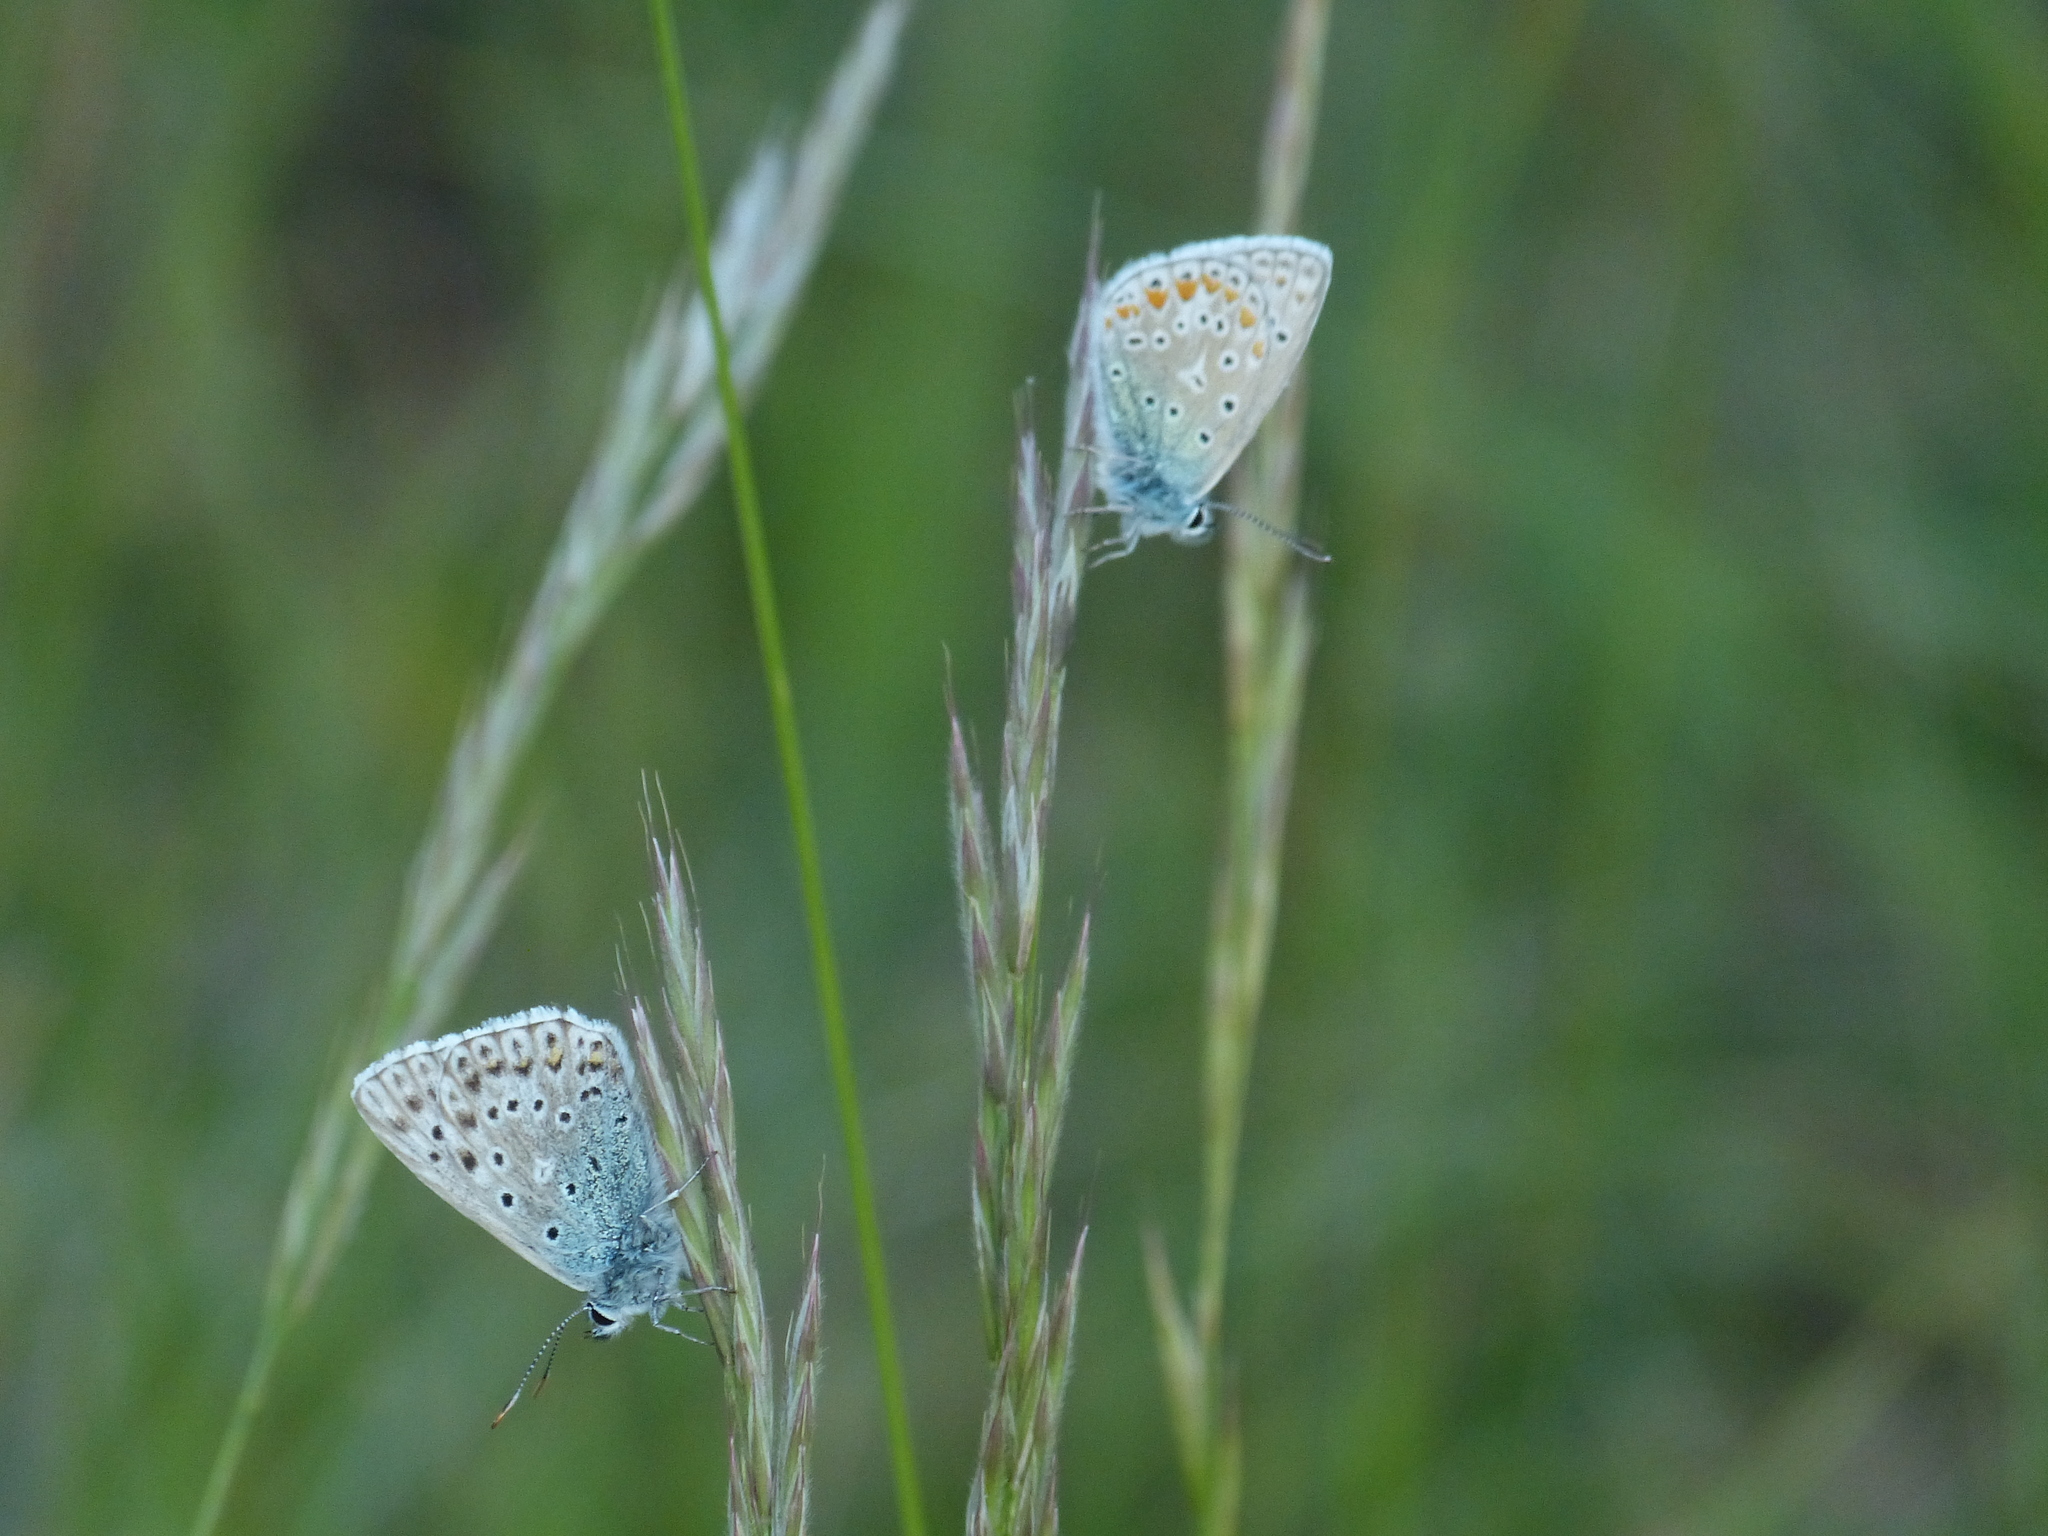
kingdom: Animalia
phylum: Arthropoda
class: Insecta
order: Lepidoptera
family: Lycaenidae
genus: Polyommatus
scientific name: Polyommatus icarus
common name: Common blue
